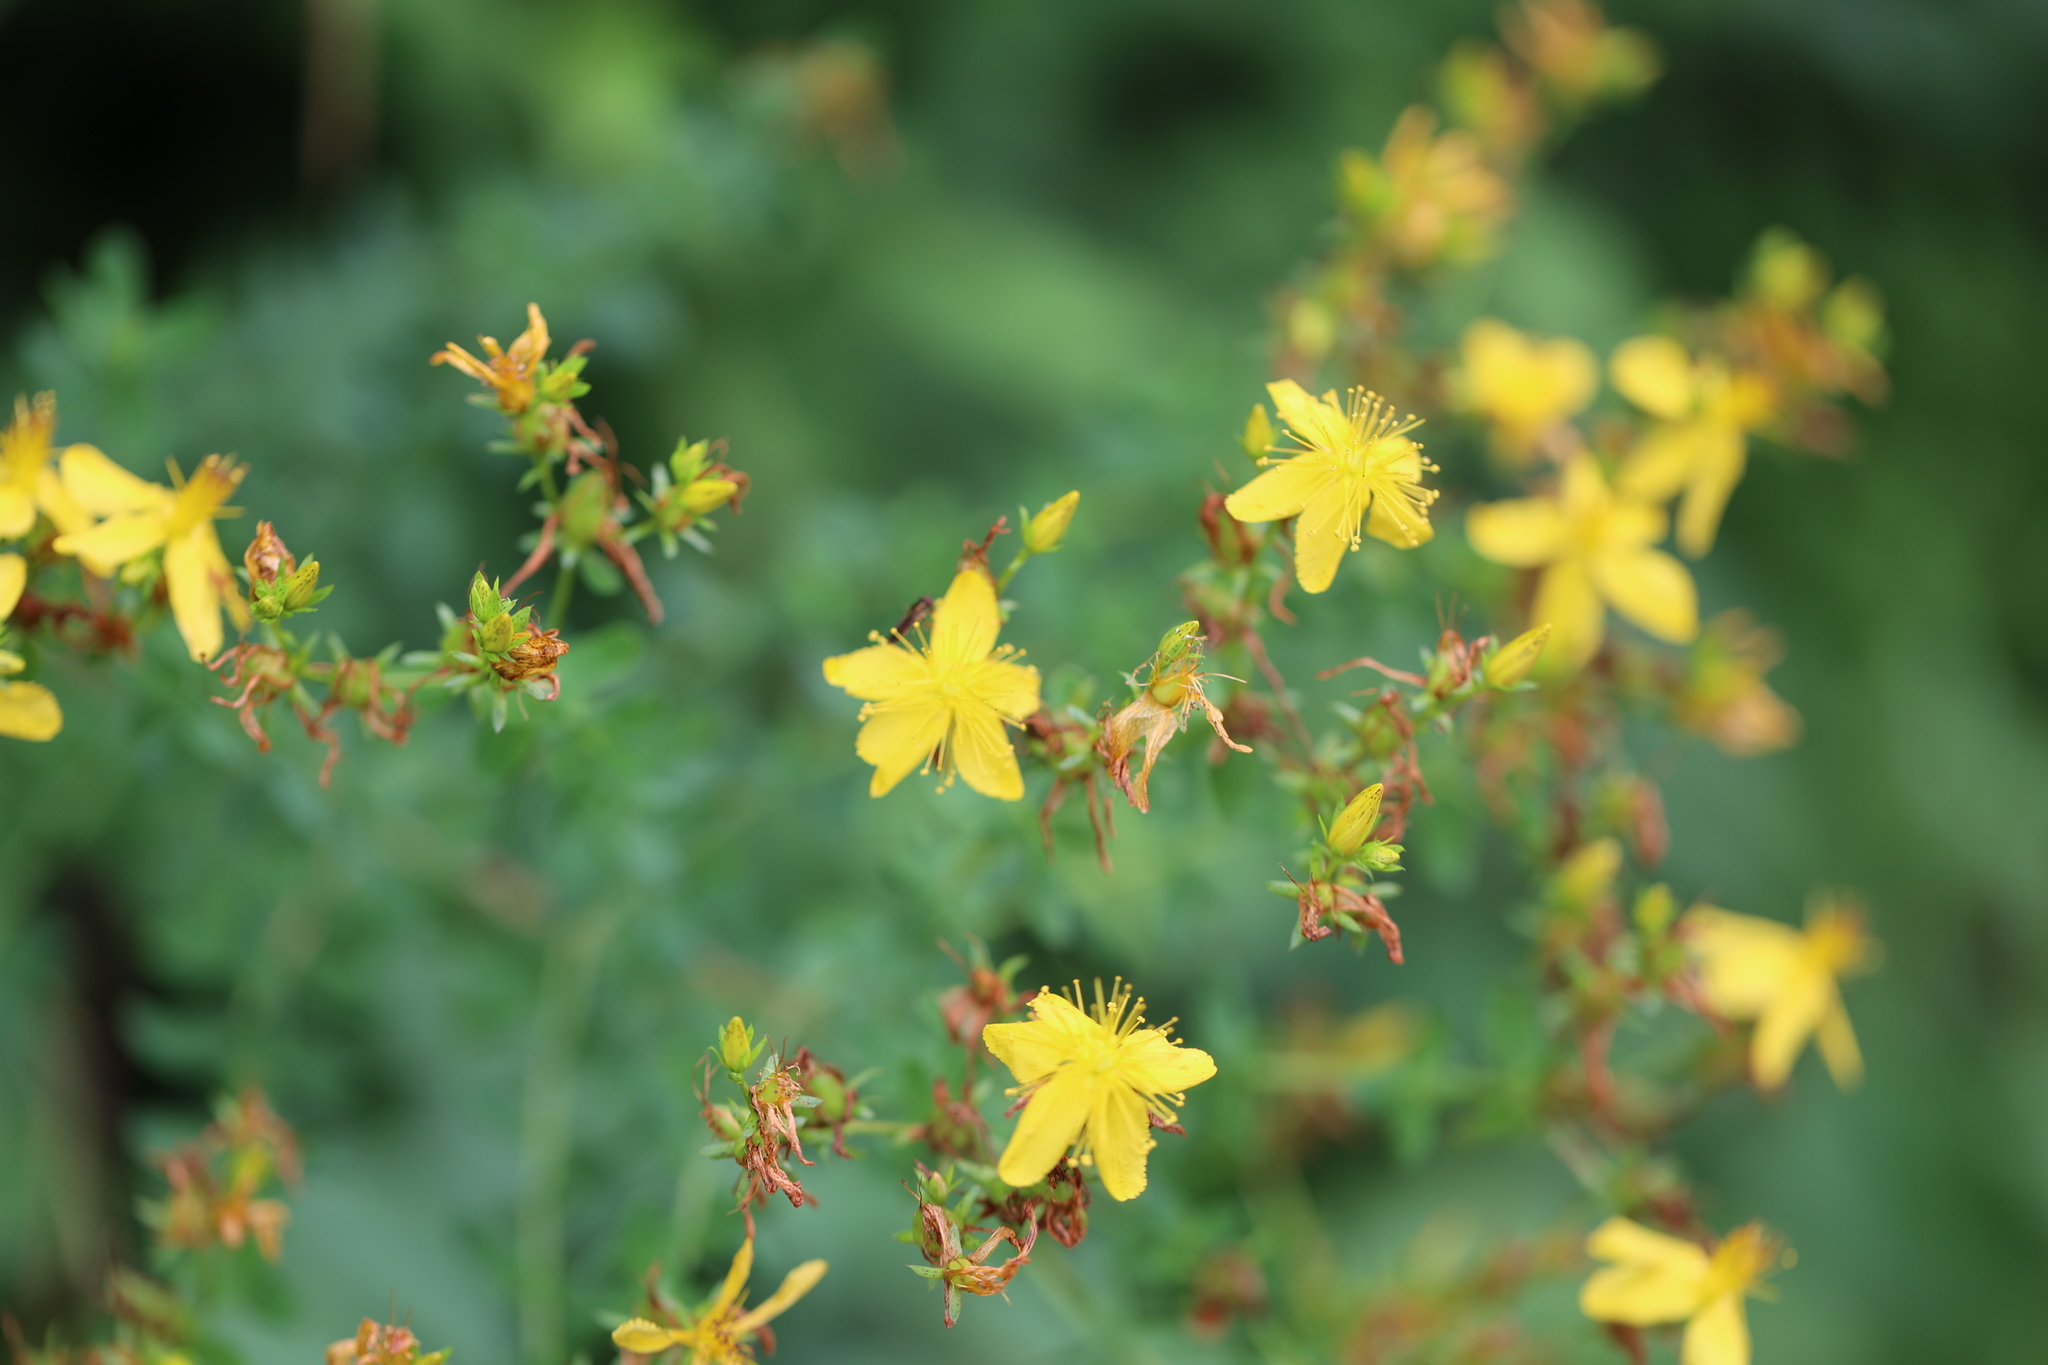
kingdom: Plantae
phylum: Tracheophyta
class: Magnoliopsida
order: Malpighiales
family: Hypericaceae
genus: Hypericum
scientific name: Hypericum perforatum
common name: Common st. johnswort
